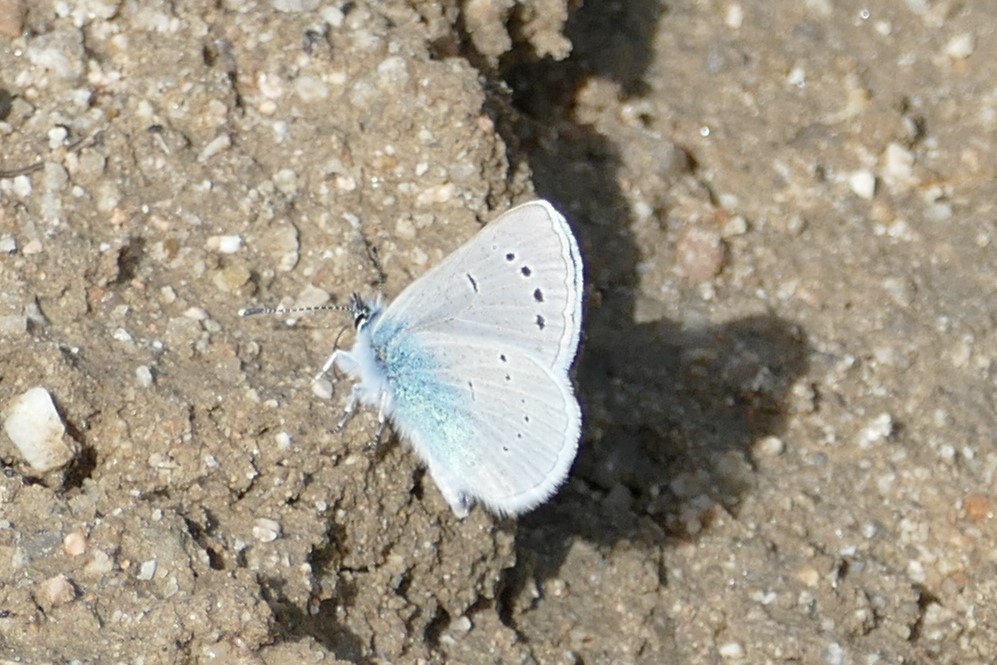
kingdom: Animalia
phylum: Arthropoda
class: Insecta
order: Lepidoptera
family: Lycaenidae
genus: Glaucopsyche
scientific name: Glaucopsyche alexis
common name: Green-underside blue
